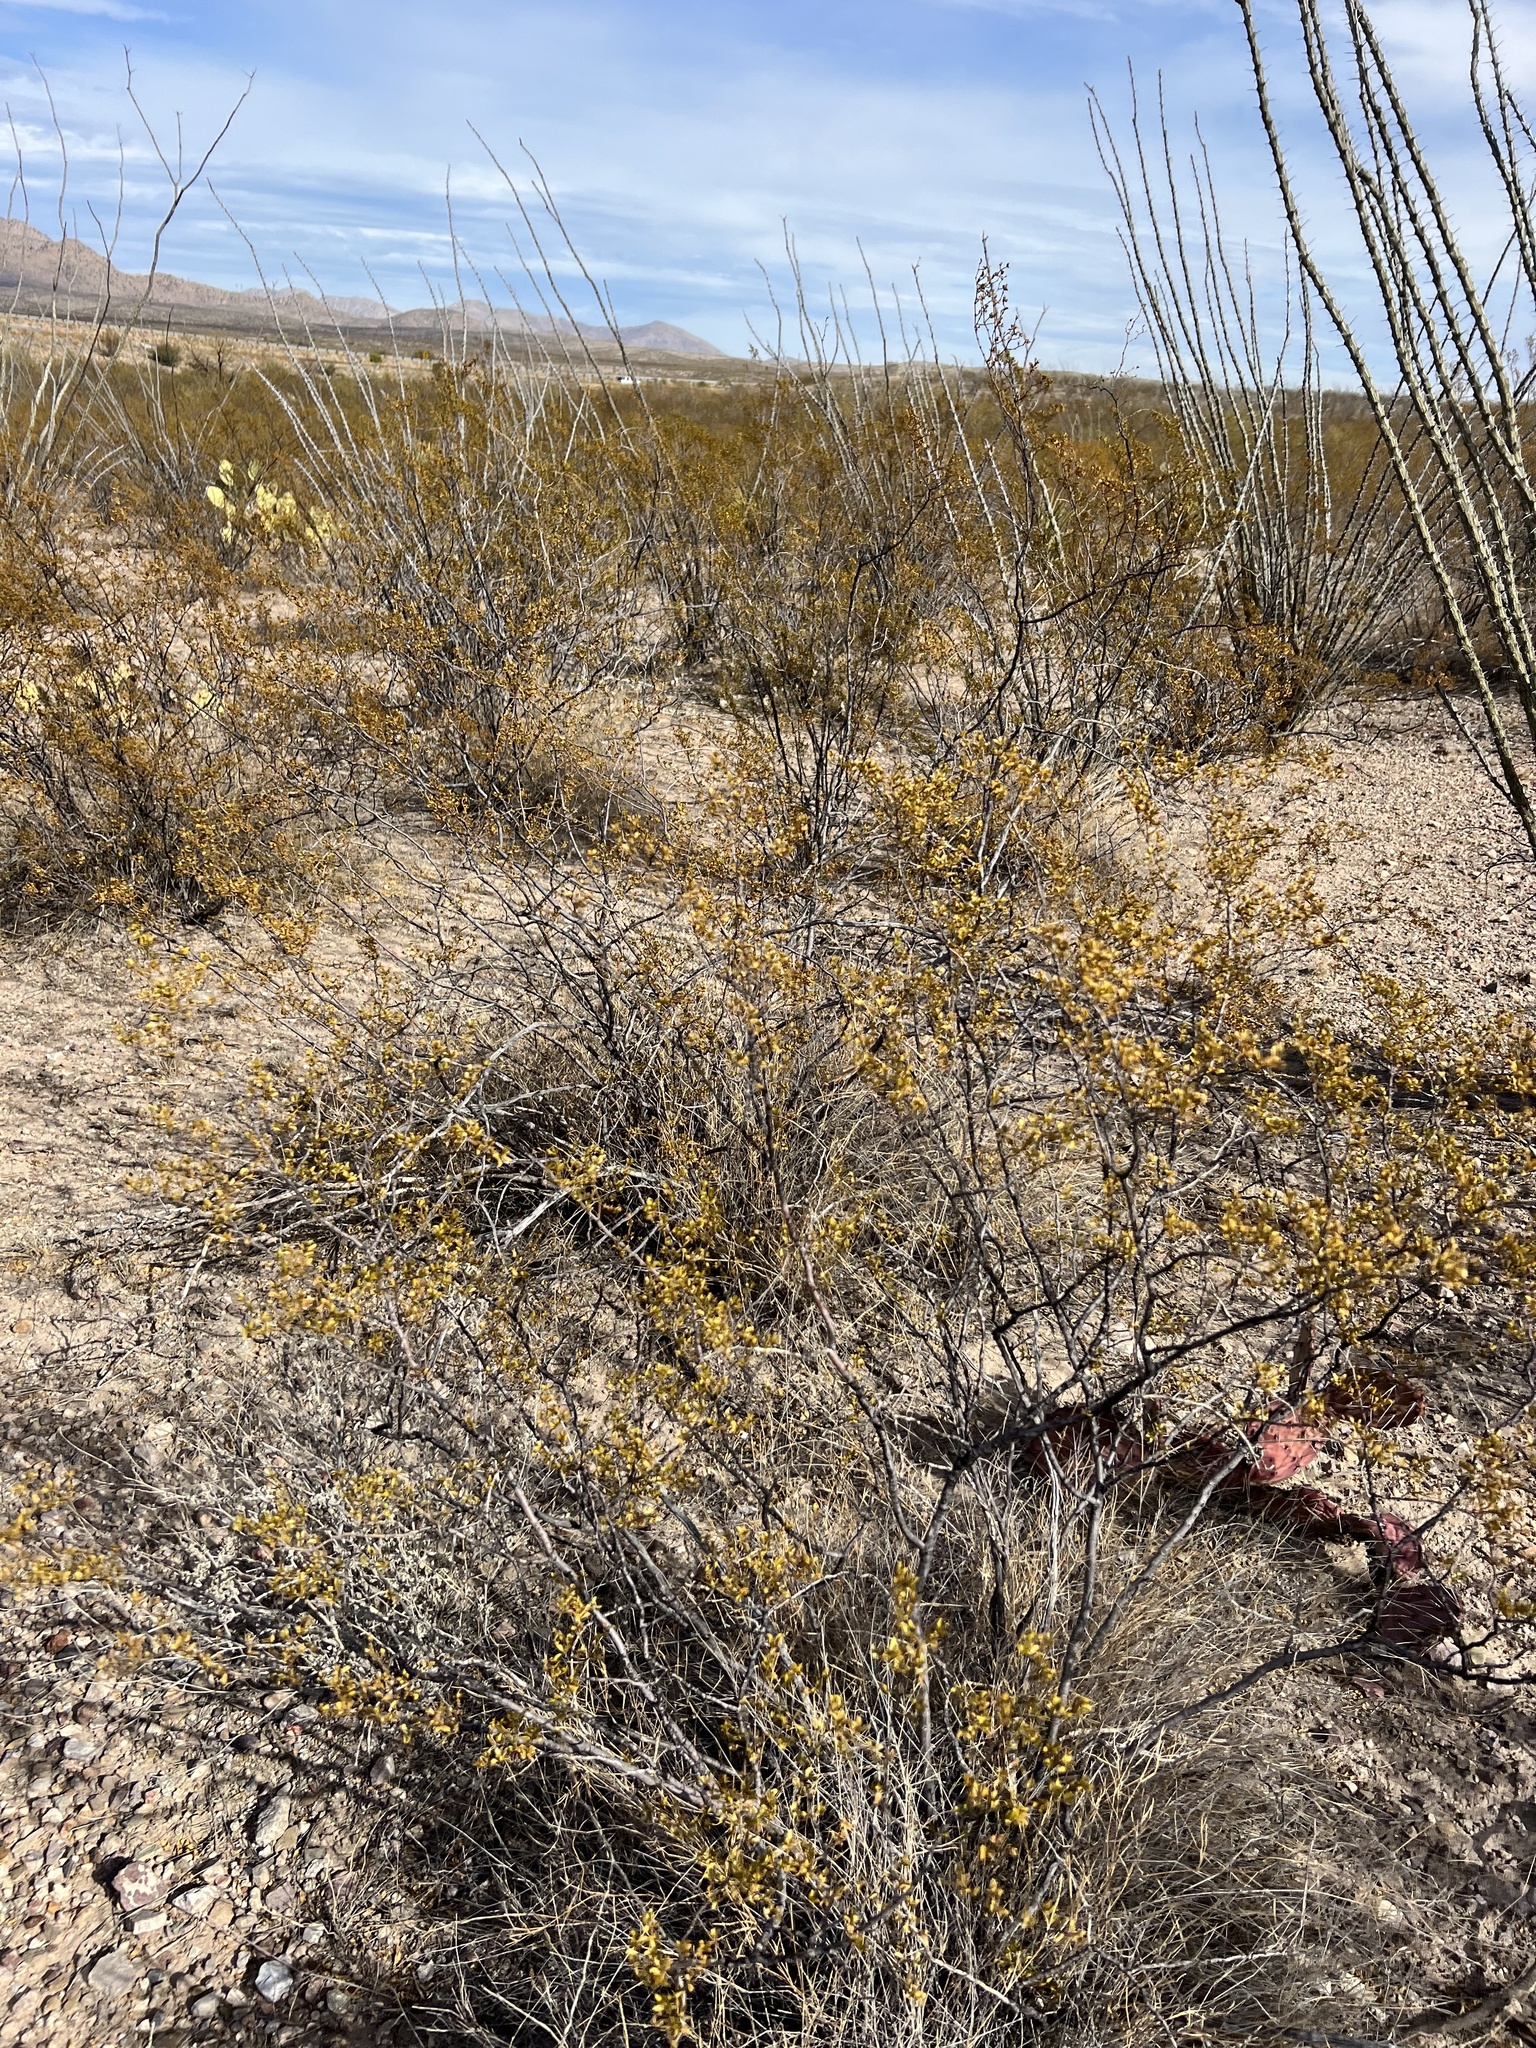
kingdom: Plantae
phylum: Tracheophyta
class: Magnoliopsida
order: Zygophyllales
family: Zygophyllaceae
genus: Larrea
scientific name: Larrea tridentata
